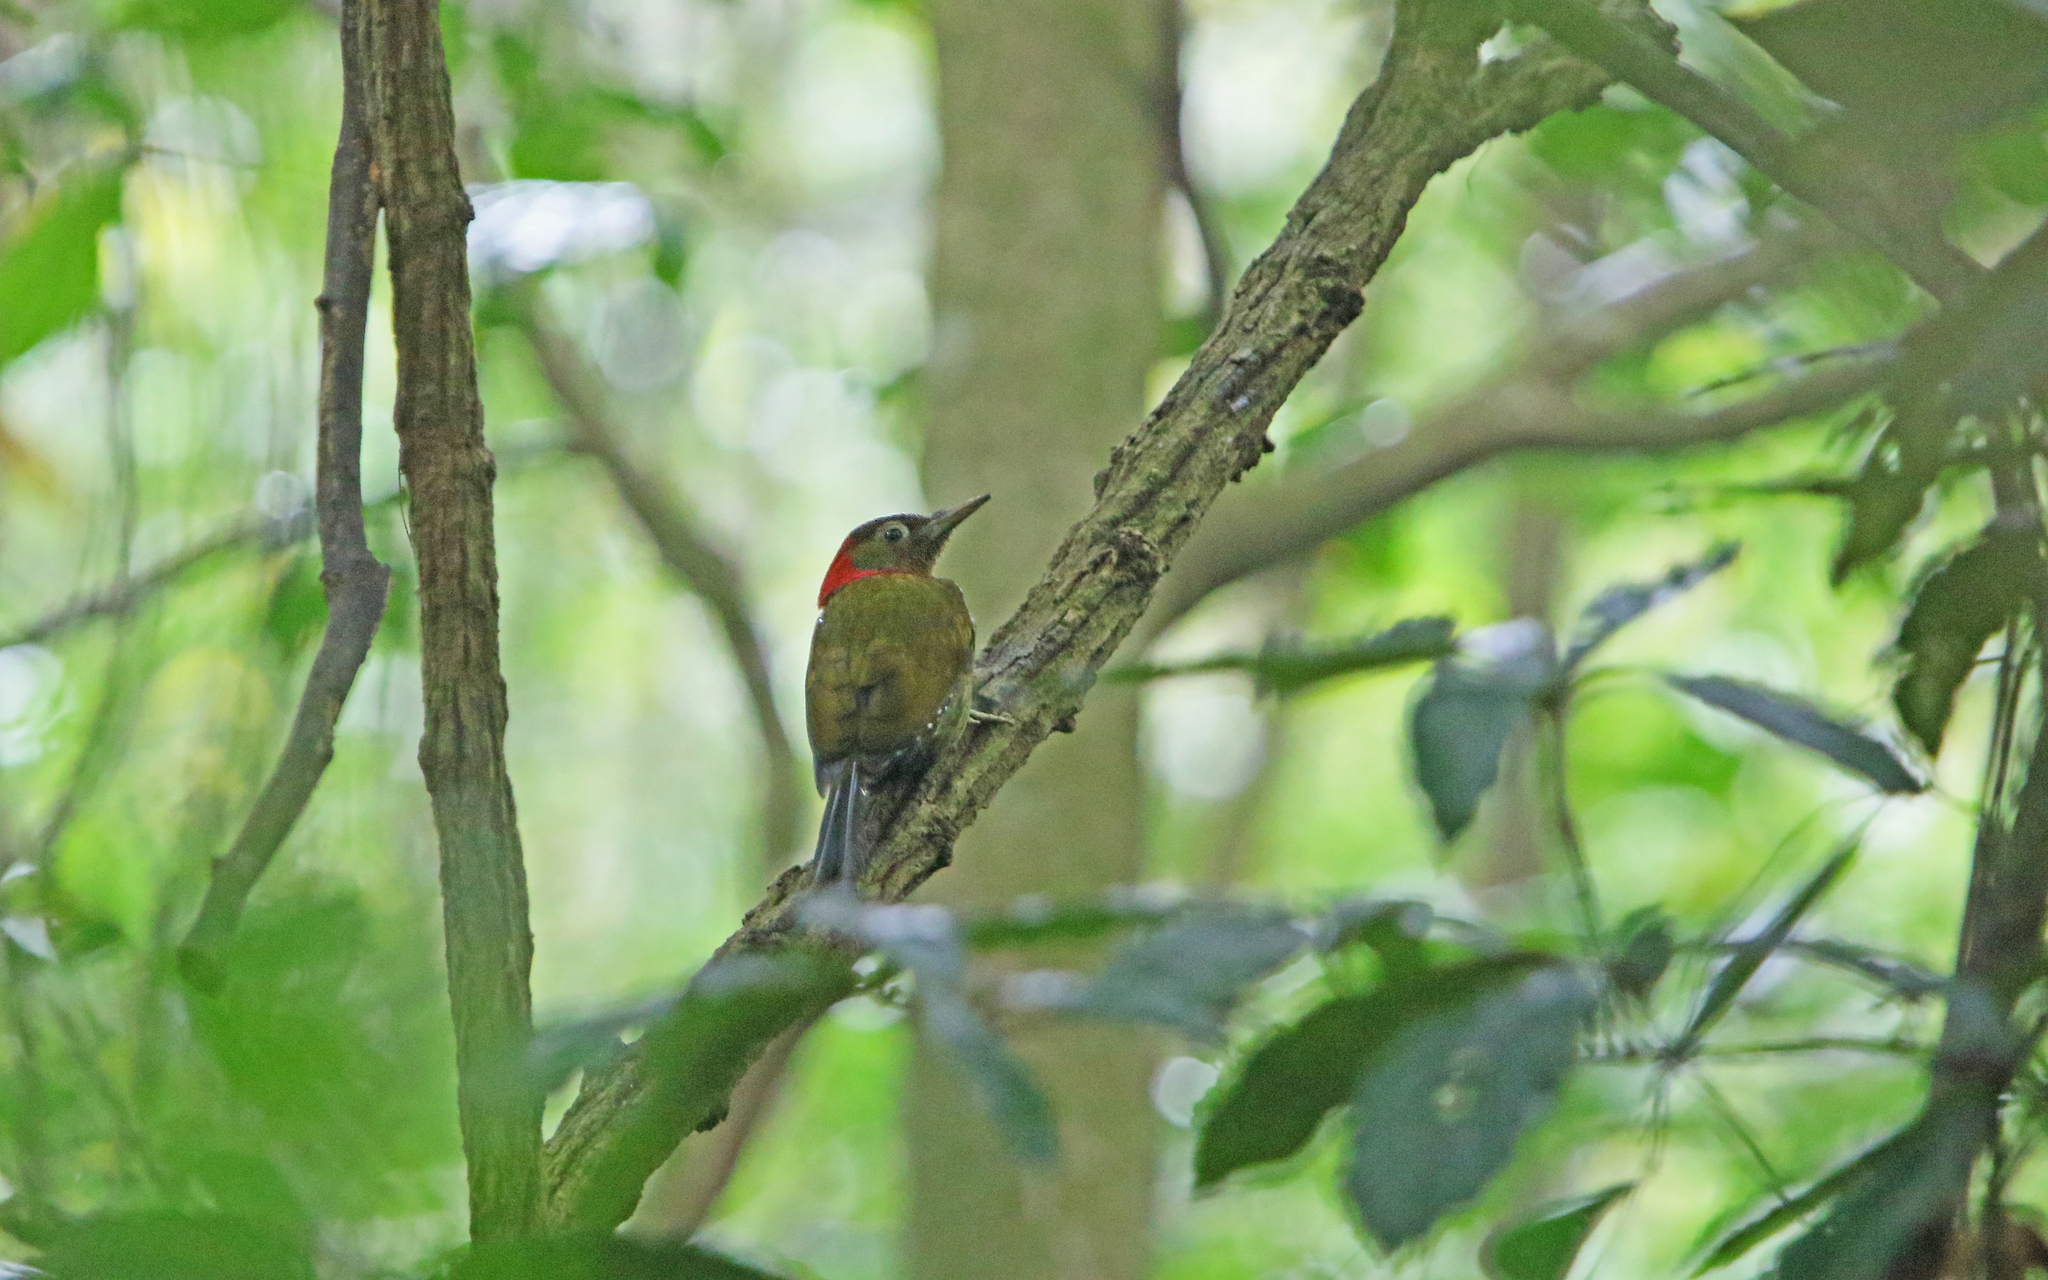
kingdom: Animalia
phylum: Chordata
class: Aves
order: Piciformes
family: Picidae
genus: Picus
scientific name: Picus rabieri
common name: Red-collared woodpecker
